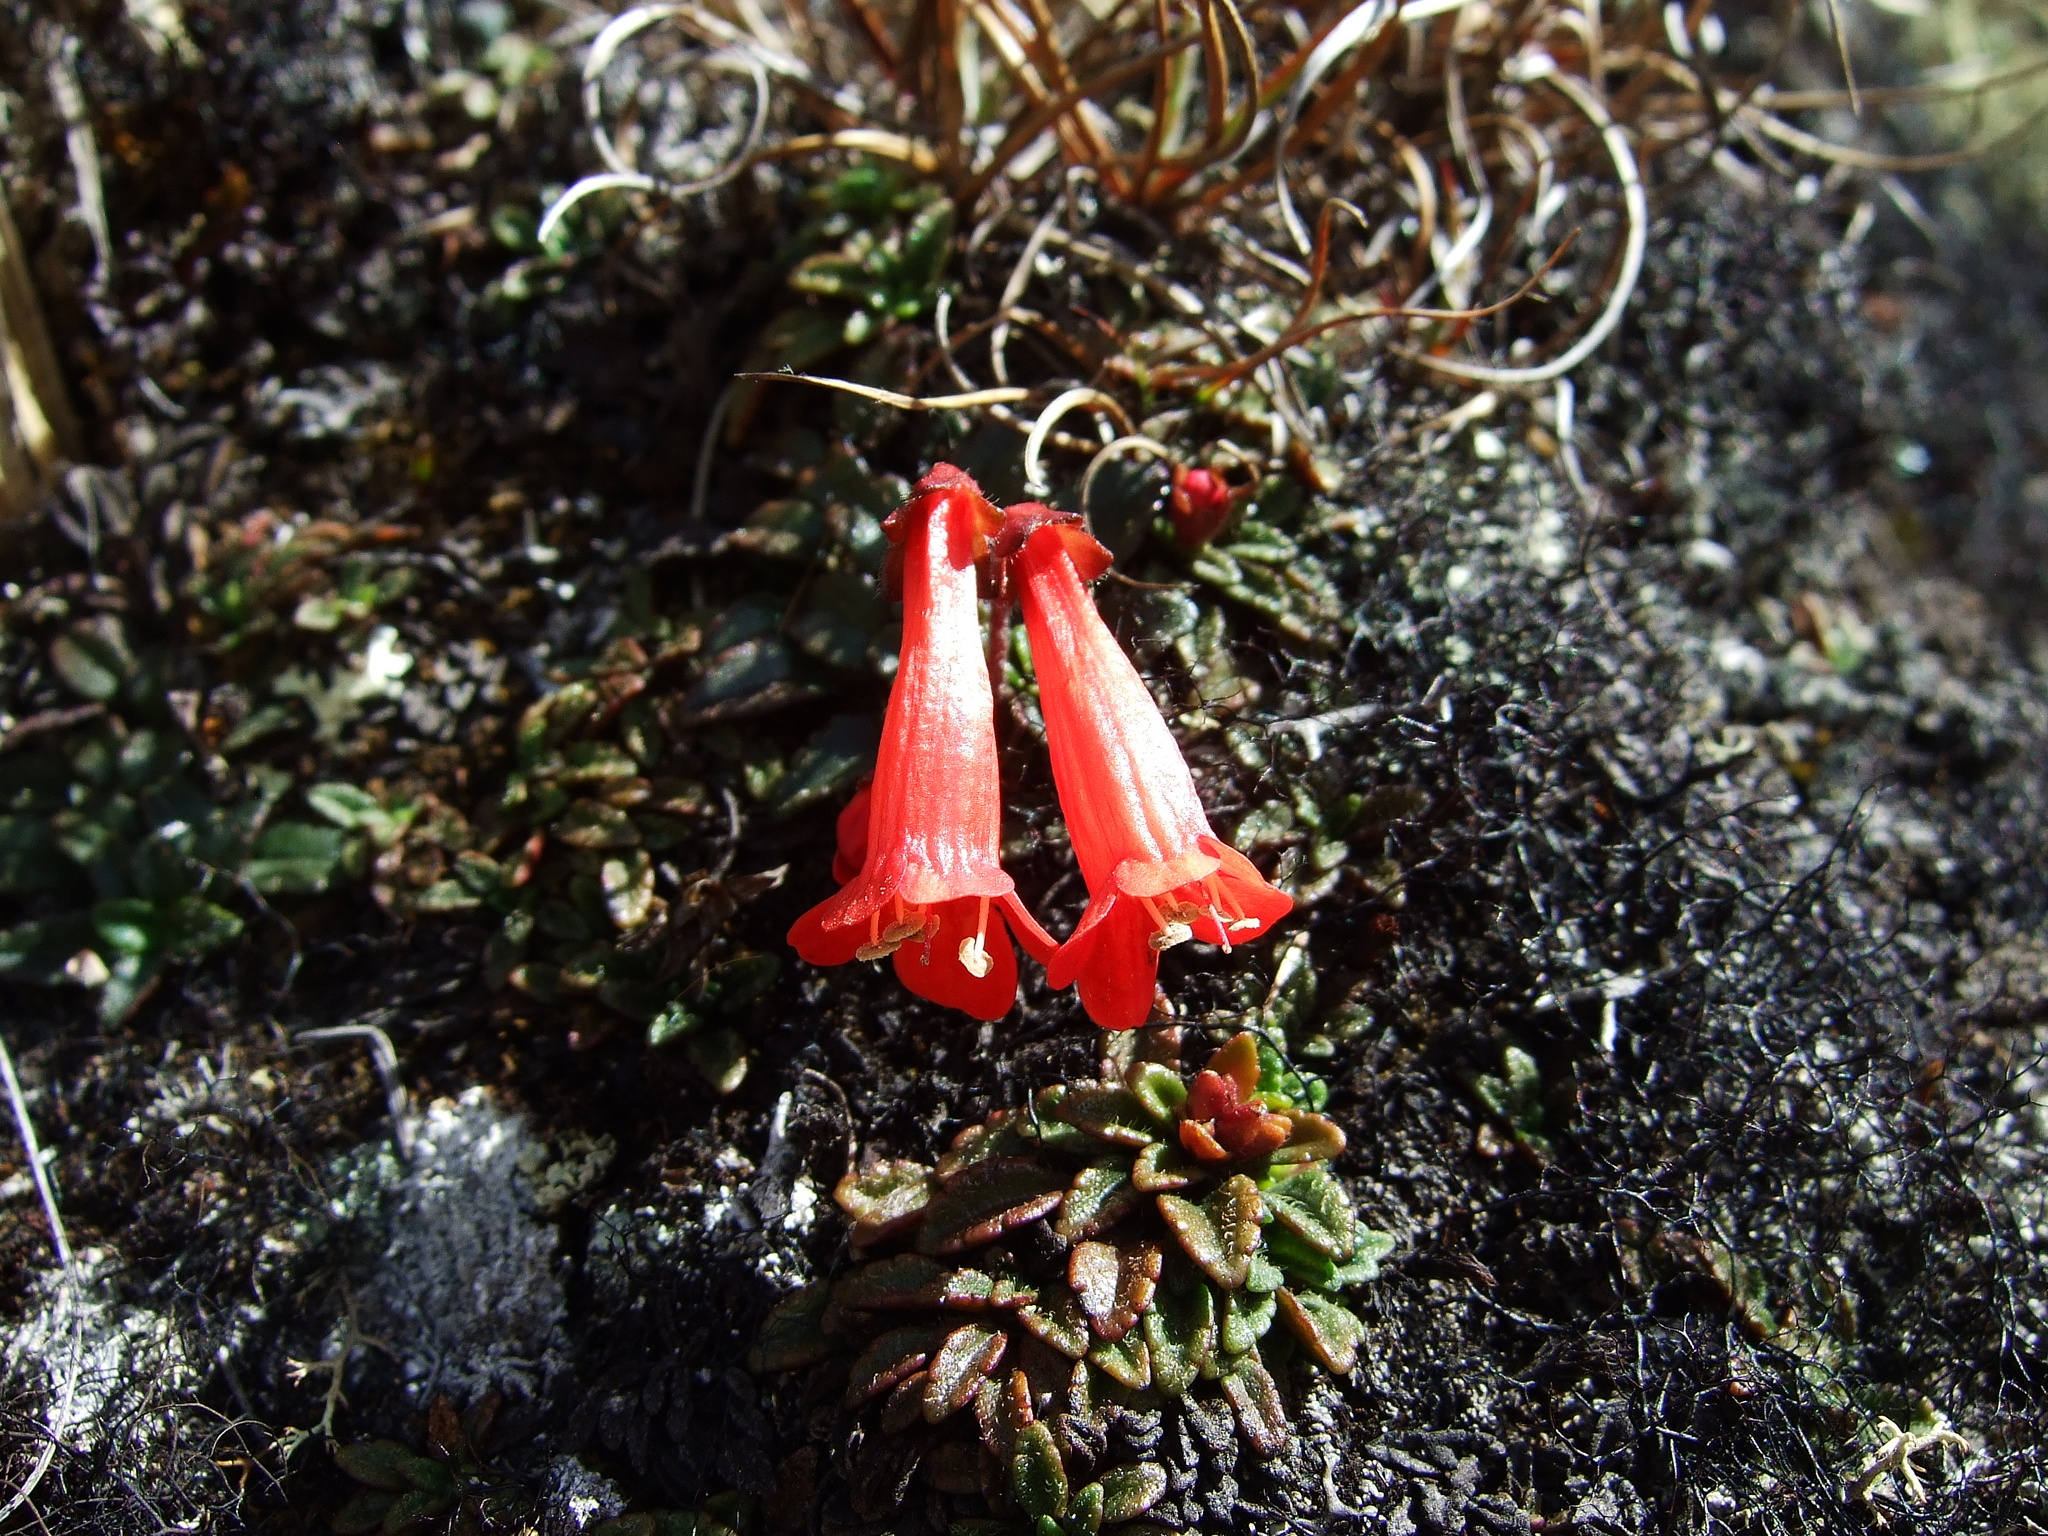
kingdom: Plantae
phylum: Tracheophyta
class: Magnoliopsida
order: Lamiales
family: Plantaginaceae
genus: Ourisia
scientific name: Ourisia chamaedrifolia
